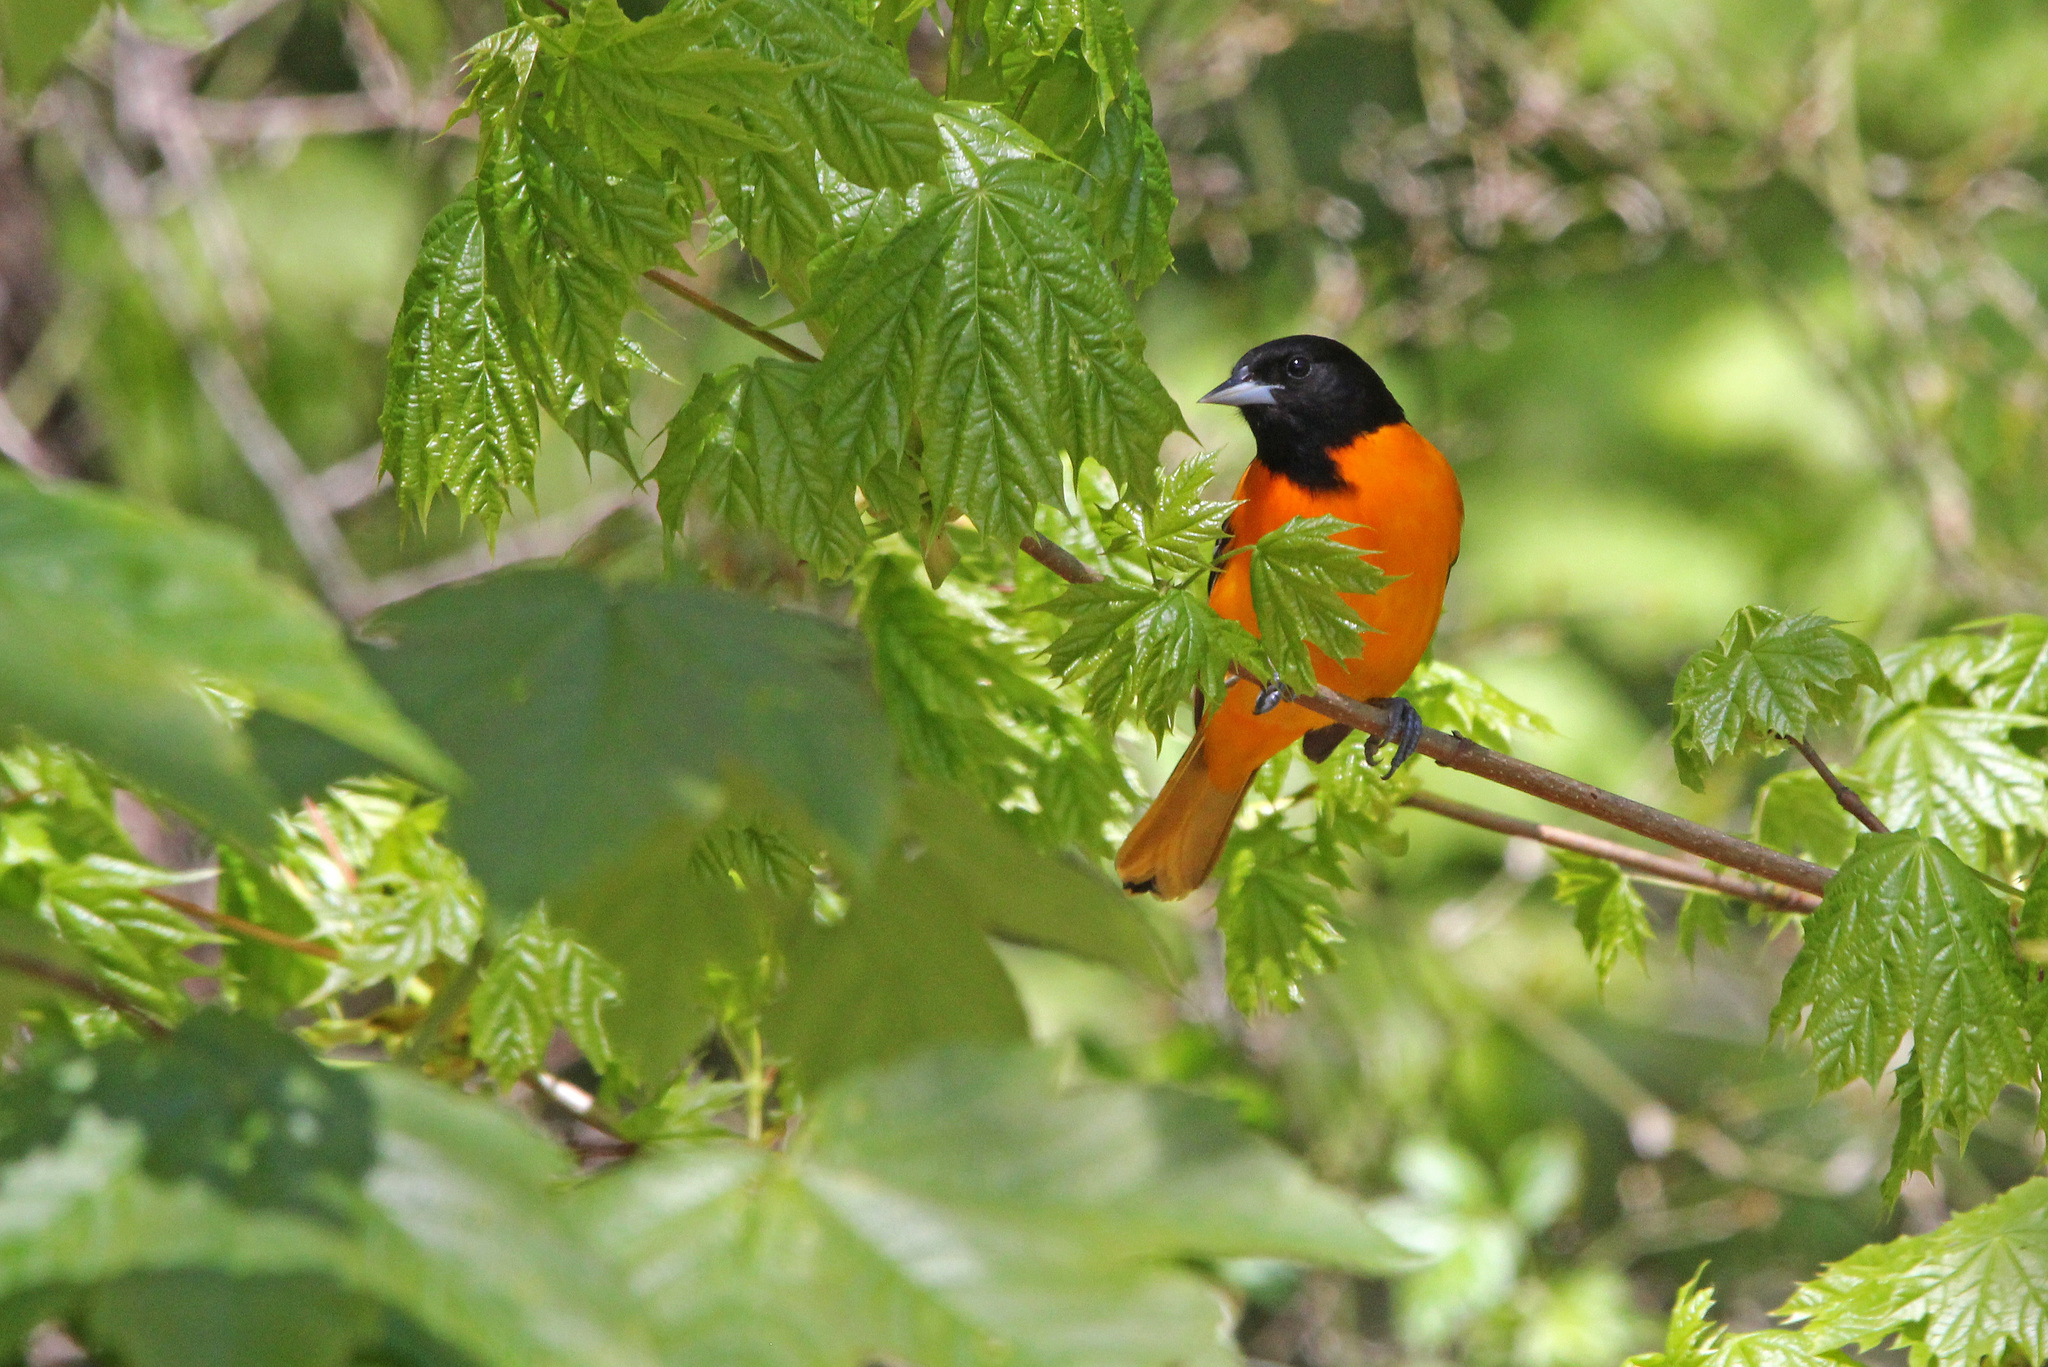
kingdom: Animalia
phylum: Chordata
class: Aves
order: Passeriformes
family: Icteridae
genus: Icterus
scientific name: Icterus galbula
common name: Baltimore oriole
